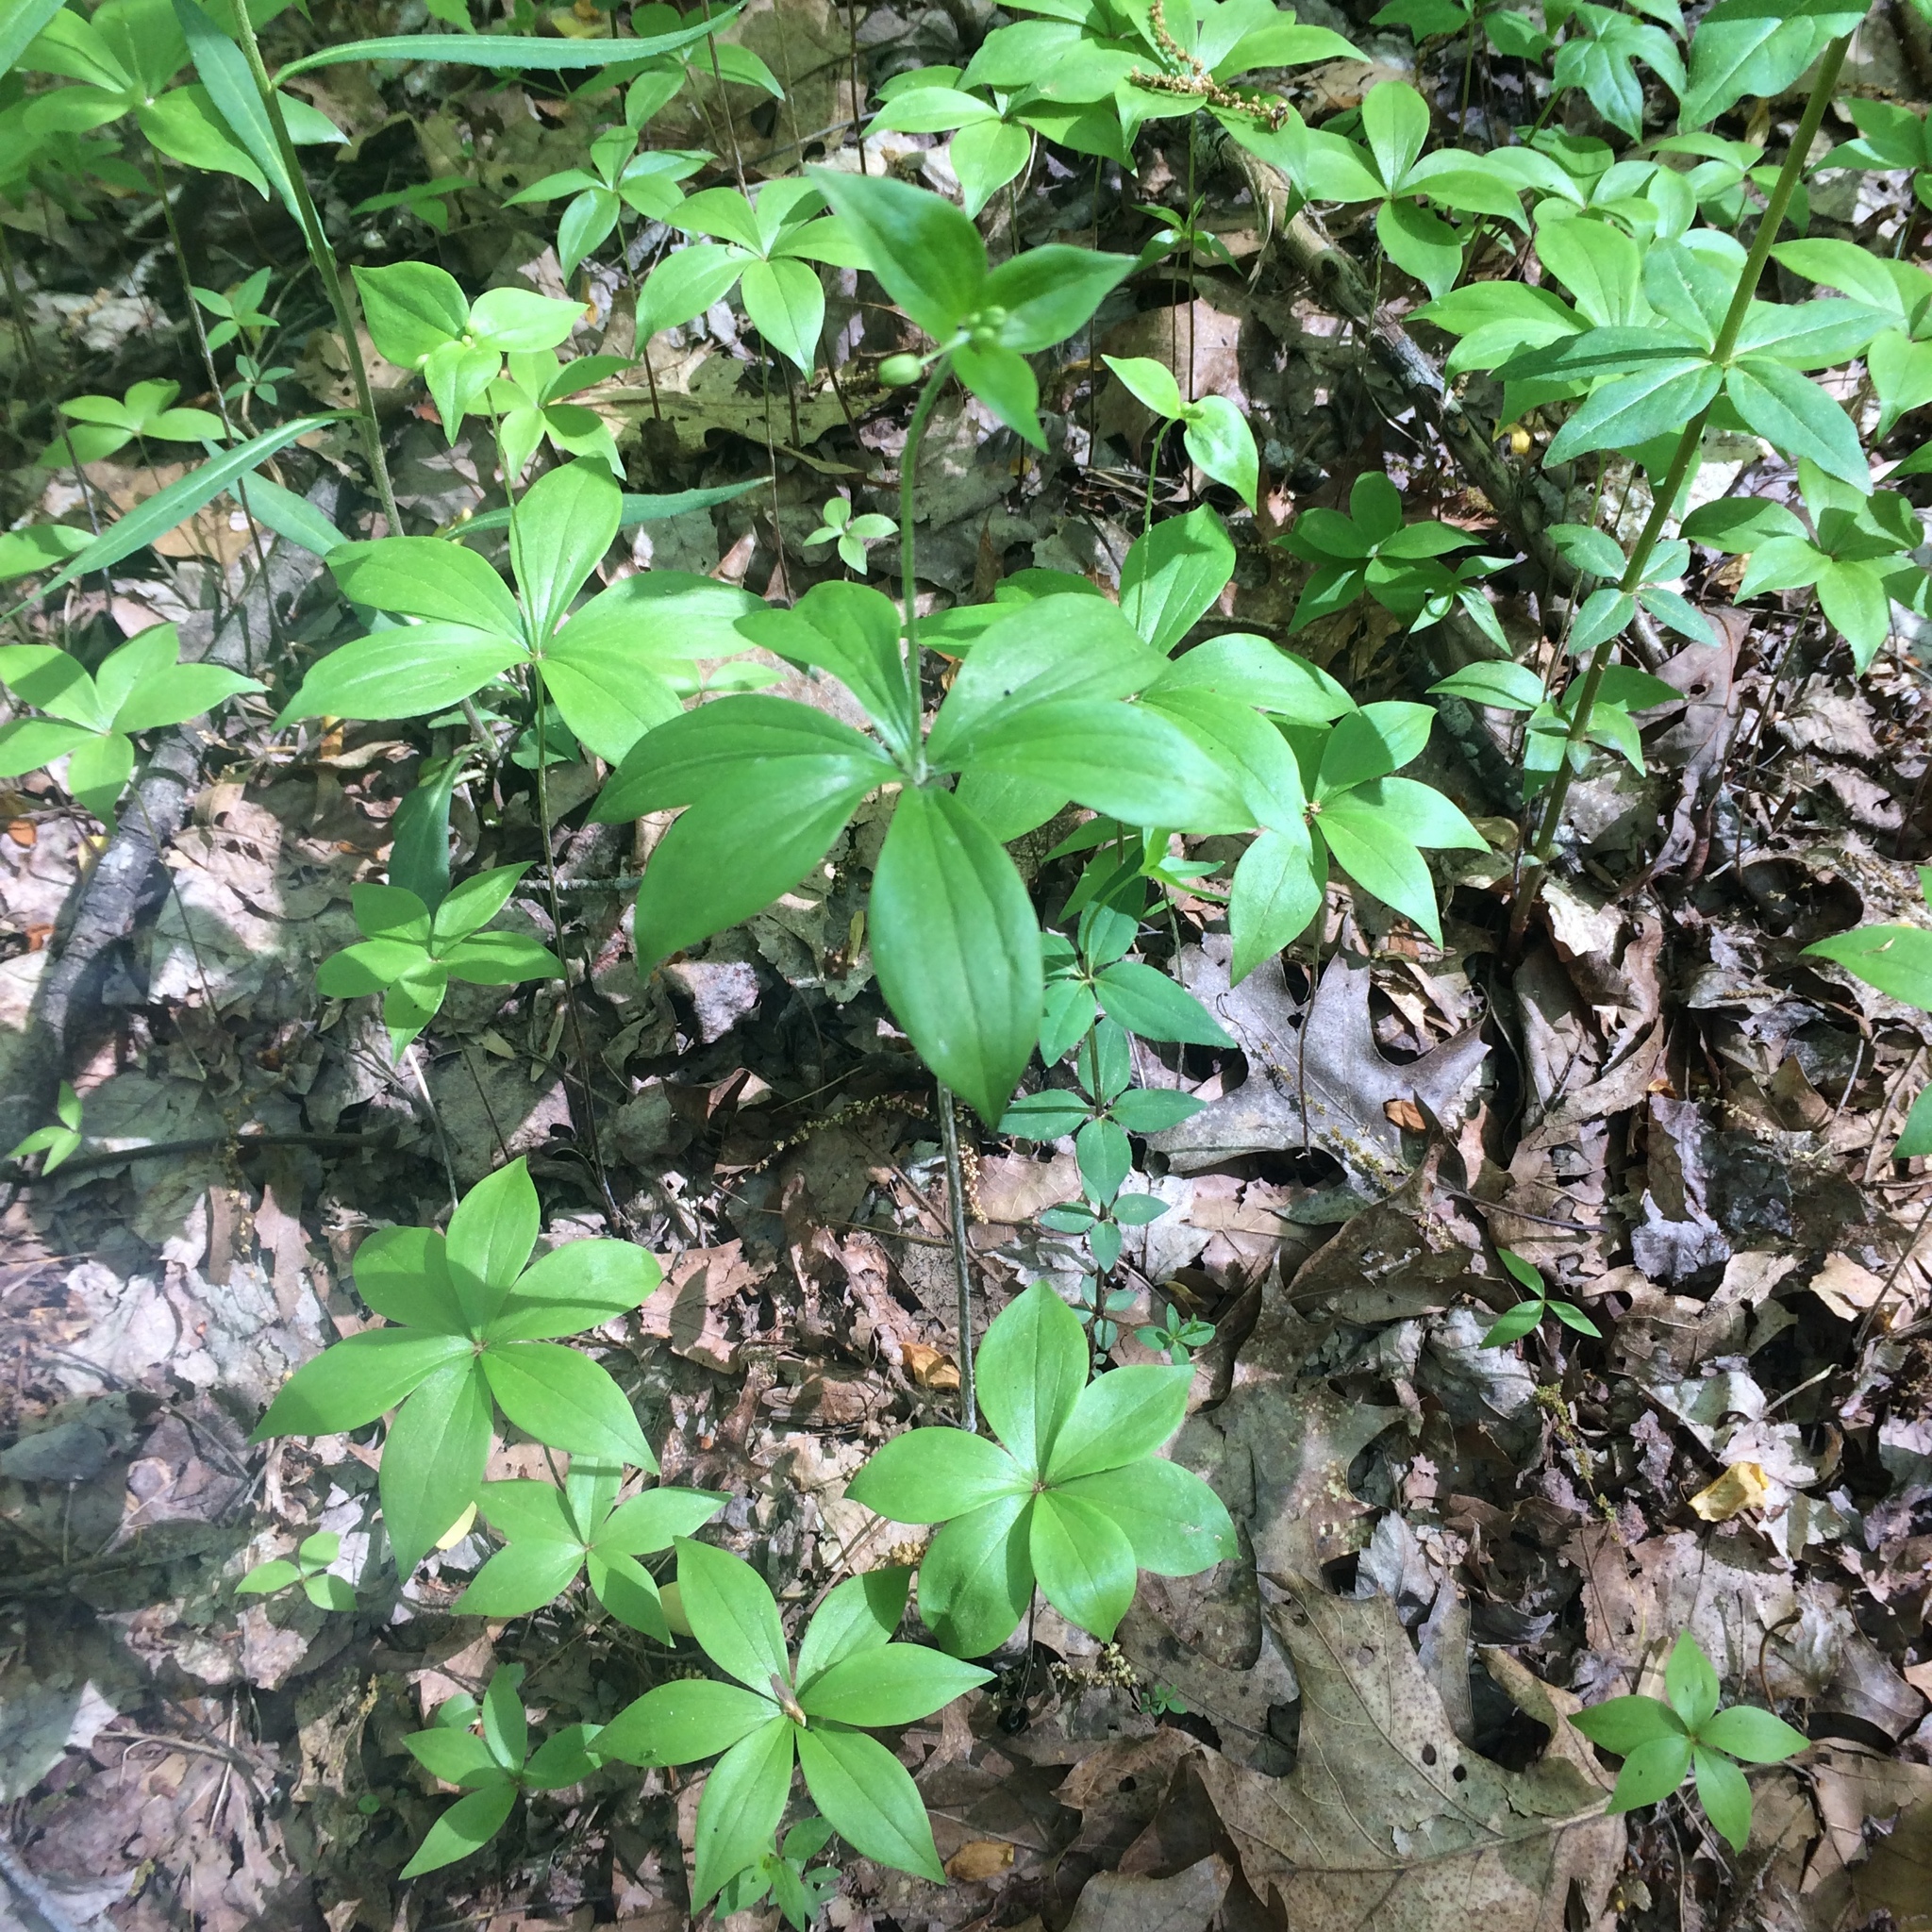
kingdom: Plantae
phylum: Tracheophyta
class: Liliopsida
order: Liliales
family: Liliaceae
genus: Medeola
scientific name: Medeola virginiana
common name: Indian cucumber-root
